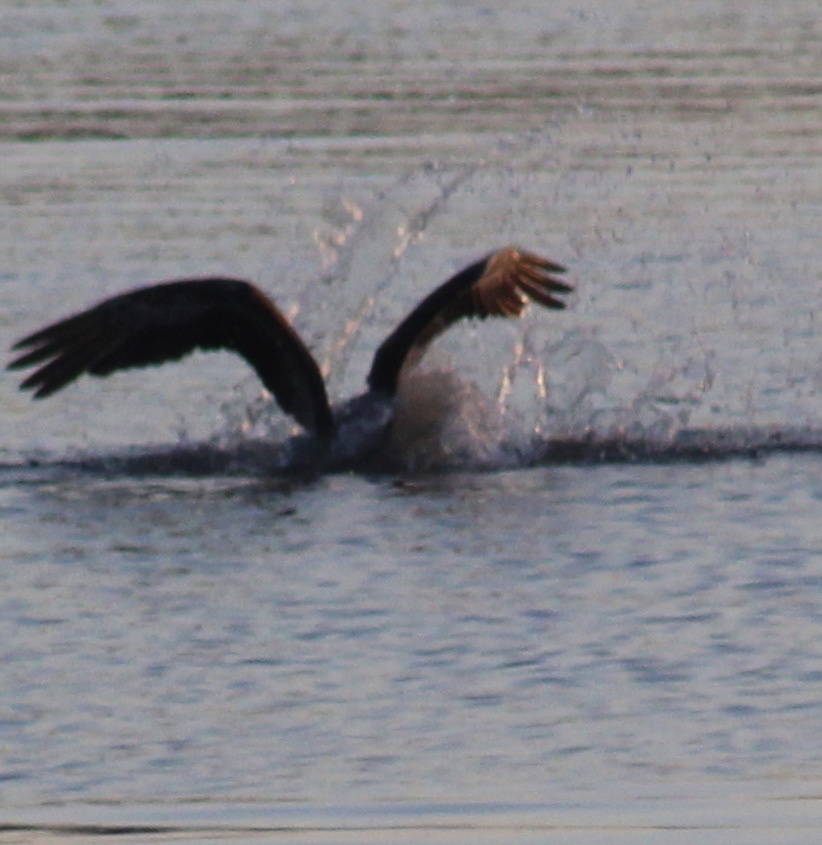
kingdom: Animalia
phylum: Chordata
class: Aves
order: Pelecaniformes
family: Pelecanidae
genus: Pelecanus
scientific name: Pelecanus occidentalis
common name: Brown pelican
